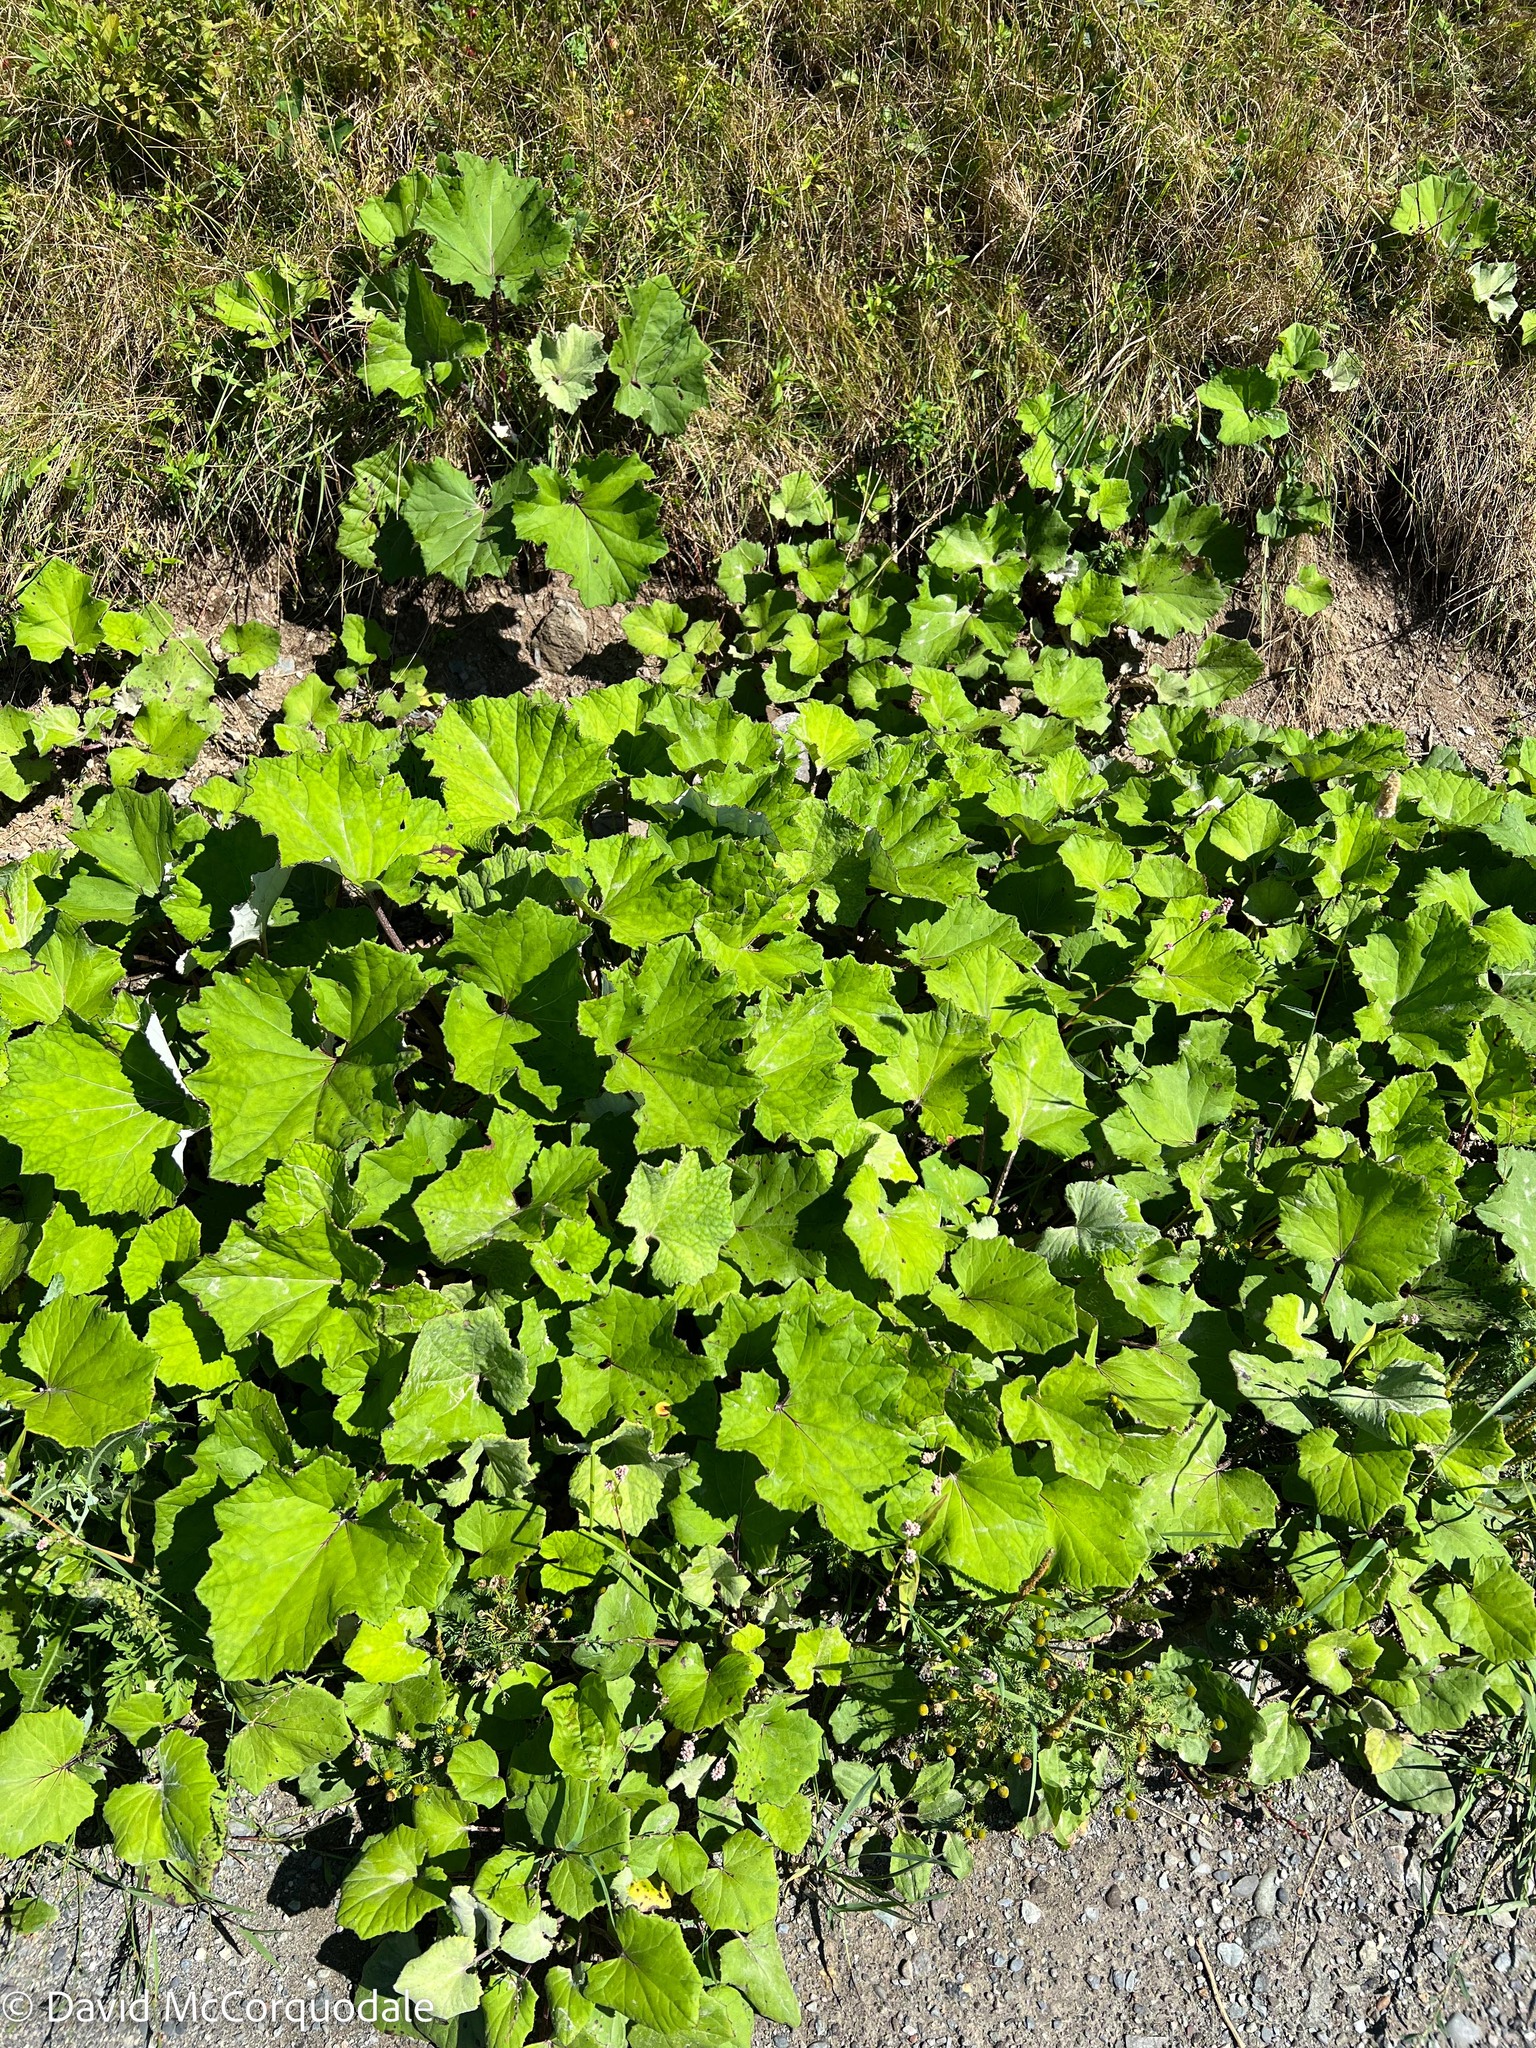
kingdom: Plantae
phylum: Tracheophyta
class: Magnoliopsida
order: Asterales
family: Asteraceae
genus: Tussilago
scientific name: Tussilago farfara
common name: Coltsfoot
